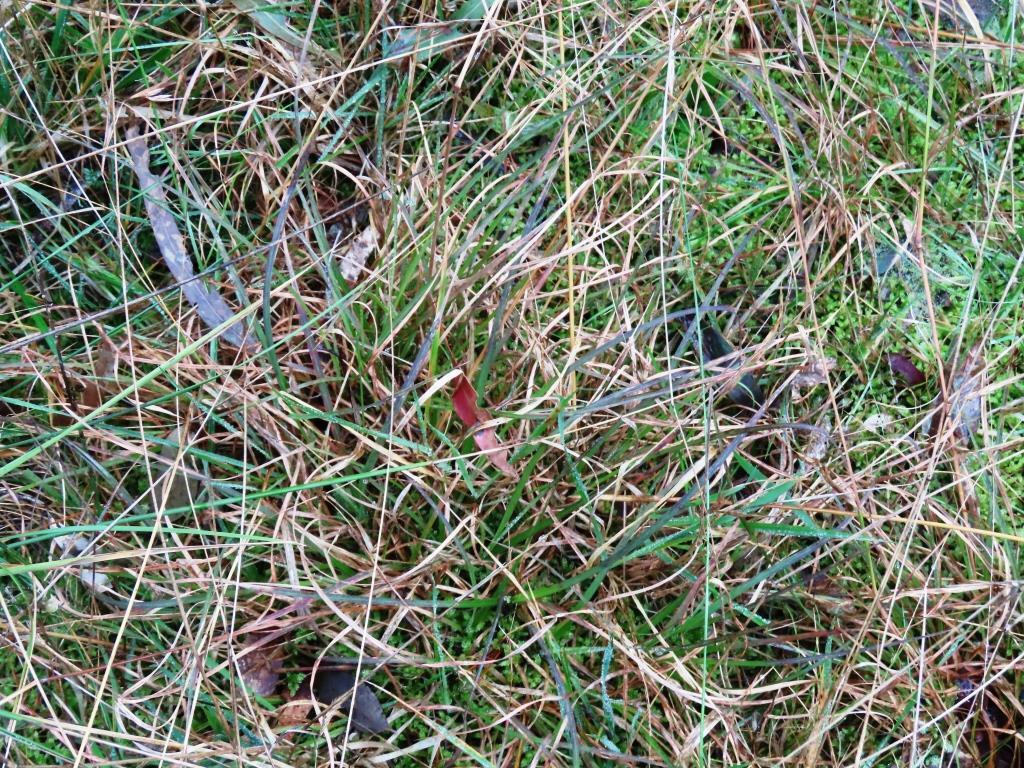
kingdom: Plantae
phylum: Tracheophyta
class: Liliopsida
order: Poales
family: Poaceae
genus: Themeda
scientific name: Themeda triandra
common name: Kangaroo grass
